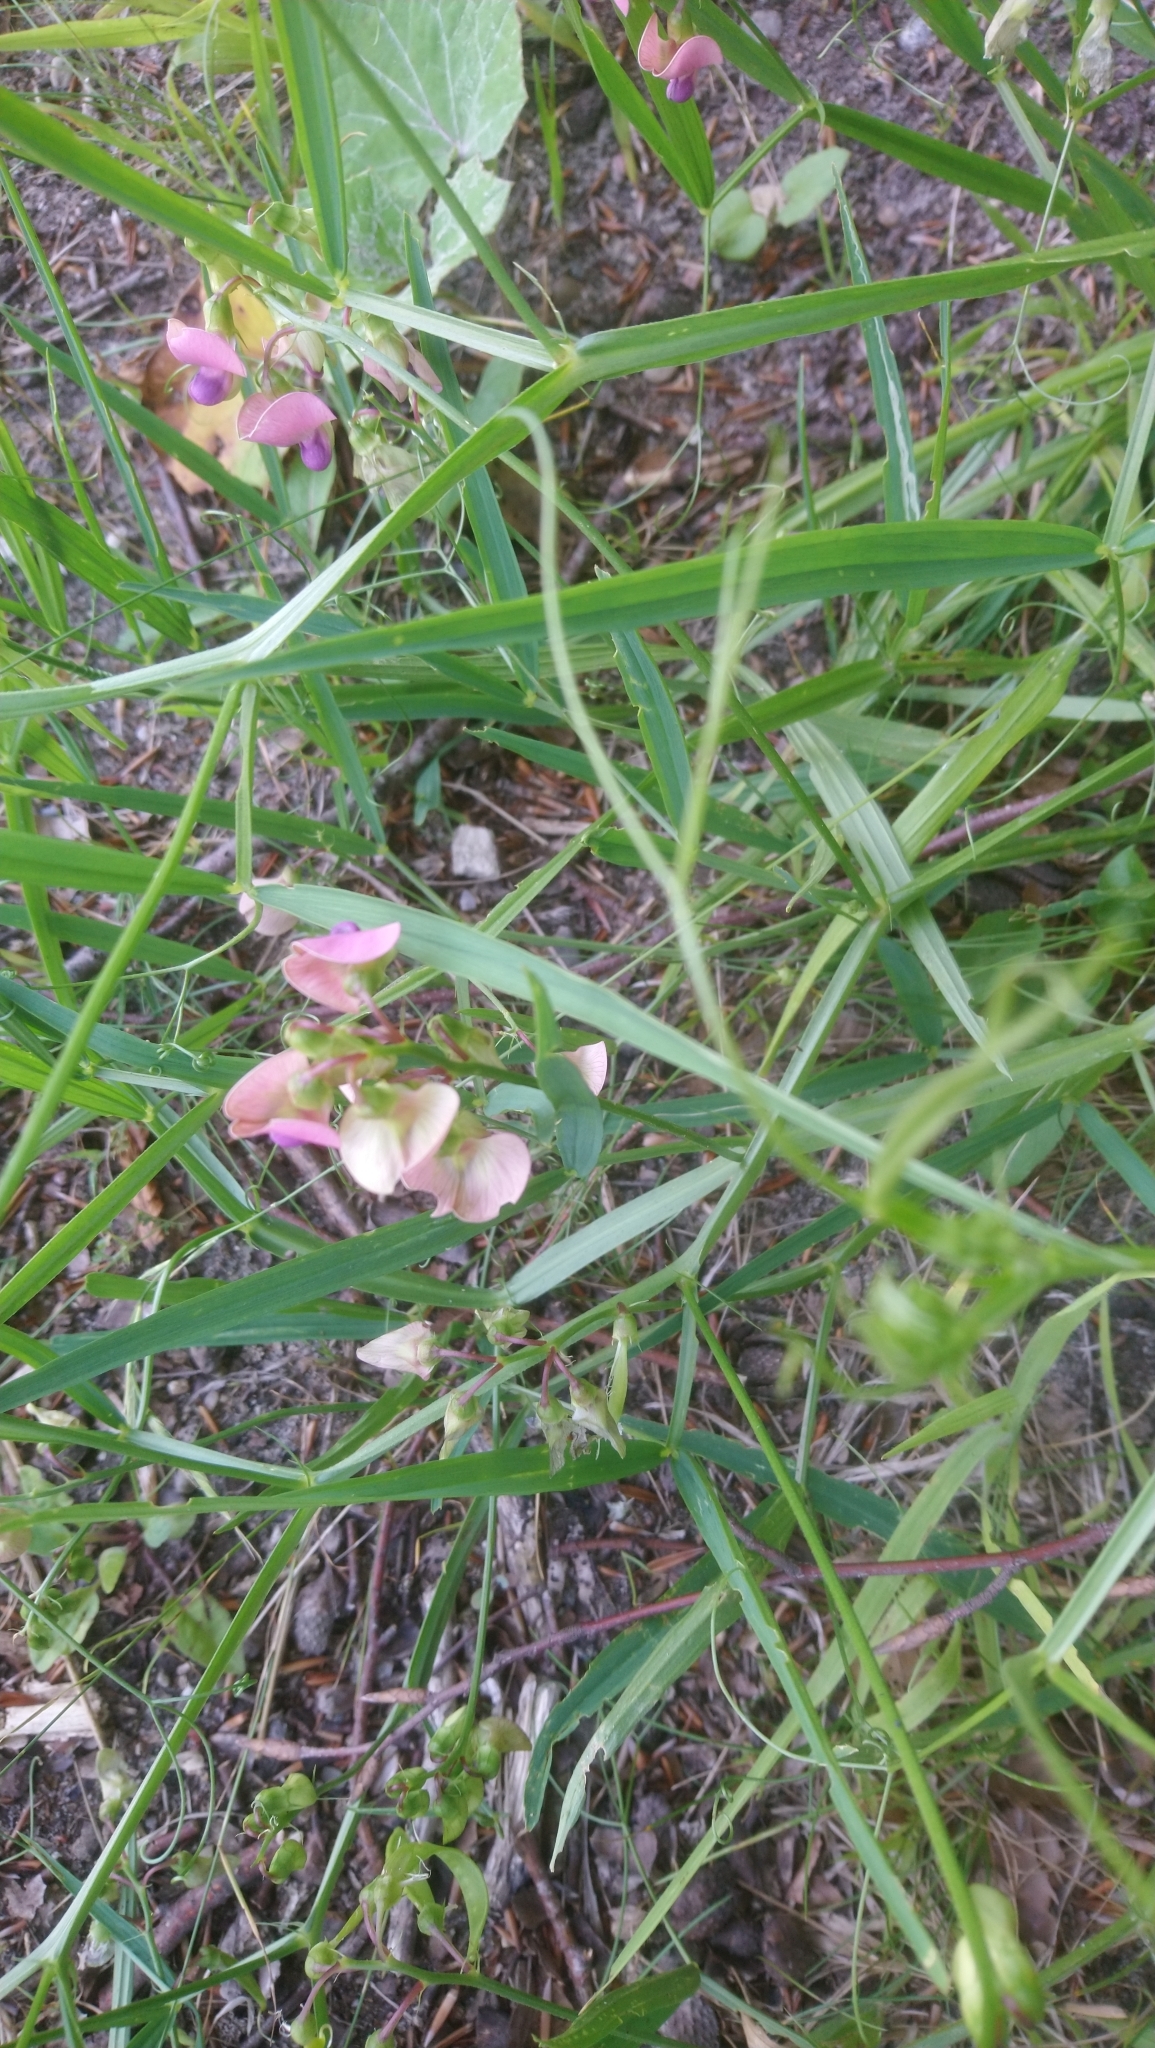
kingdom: Plantae
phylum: Tracheophyta
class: Magnoliopsida
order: Fabales
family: Fabaceae
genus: Lathyrus
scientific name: Lathyrus sylvestris
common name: Flat pea
